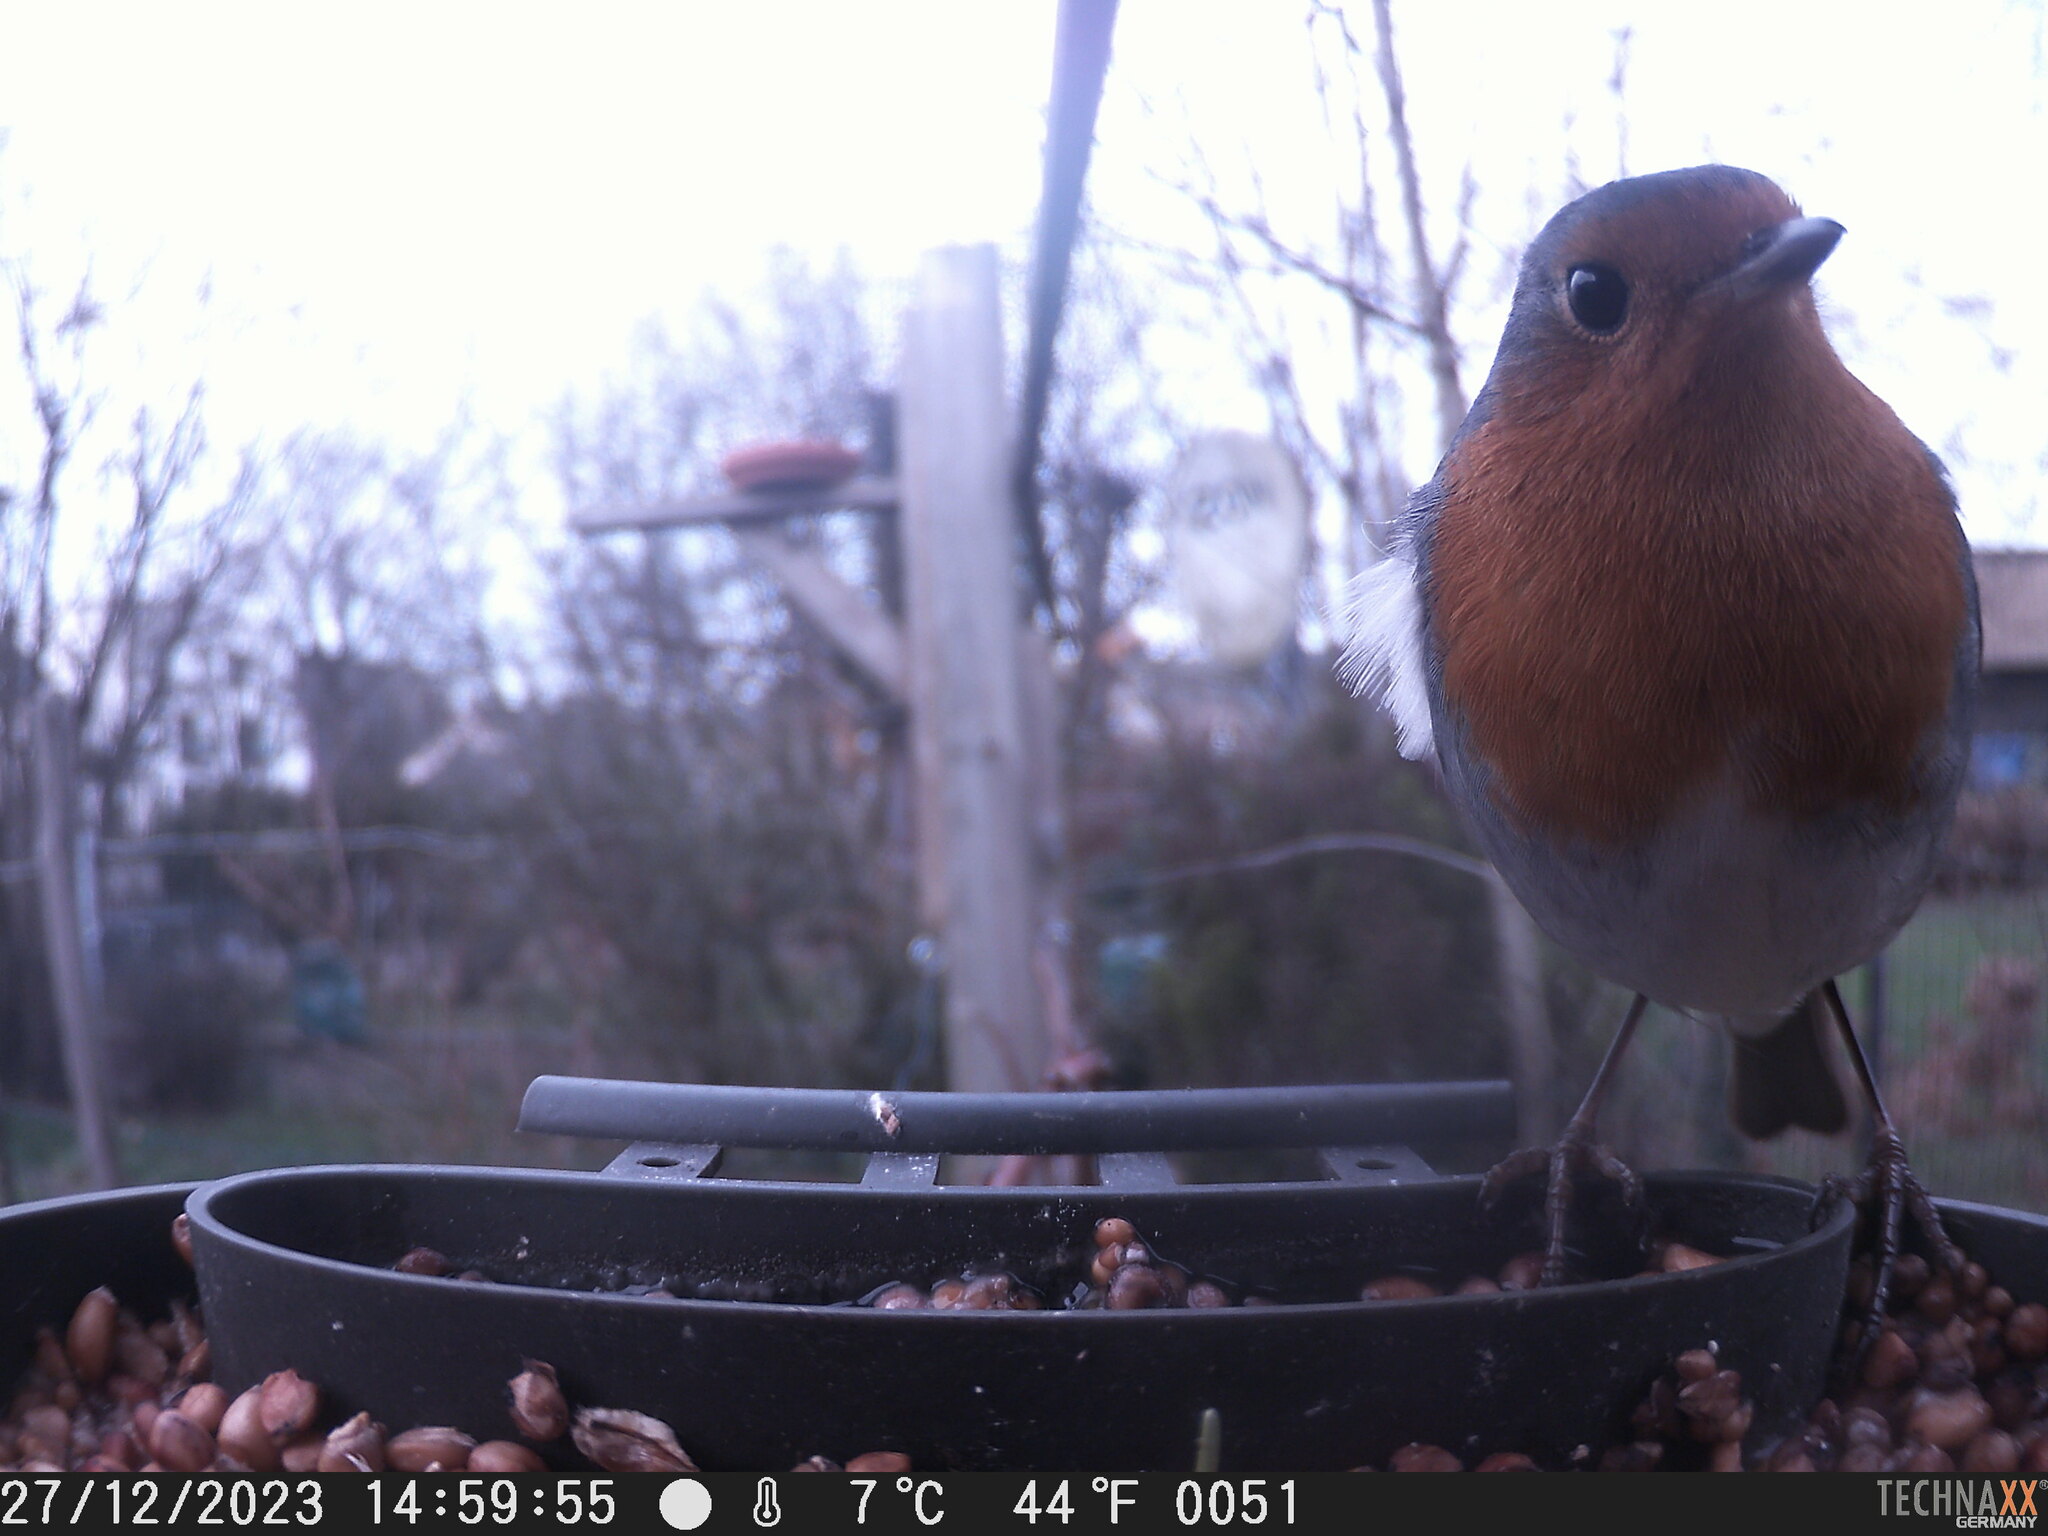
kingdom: Animalia
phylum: Chordata
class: Aves
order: Passeriformes
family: Muscicapidae
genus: Erithacus
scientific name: Erithacus rubecula
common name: European robin
